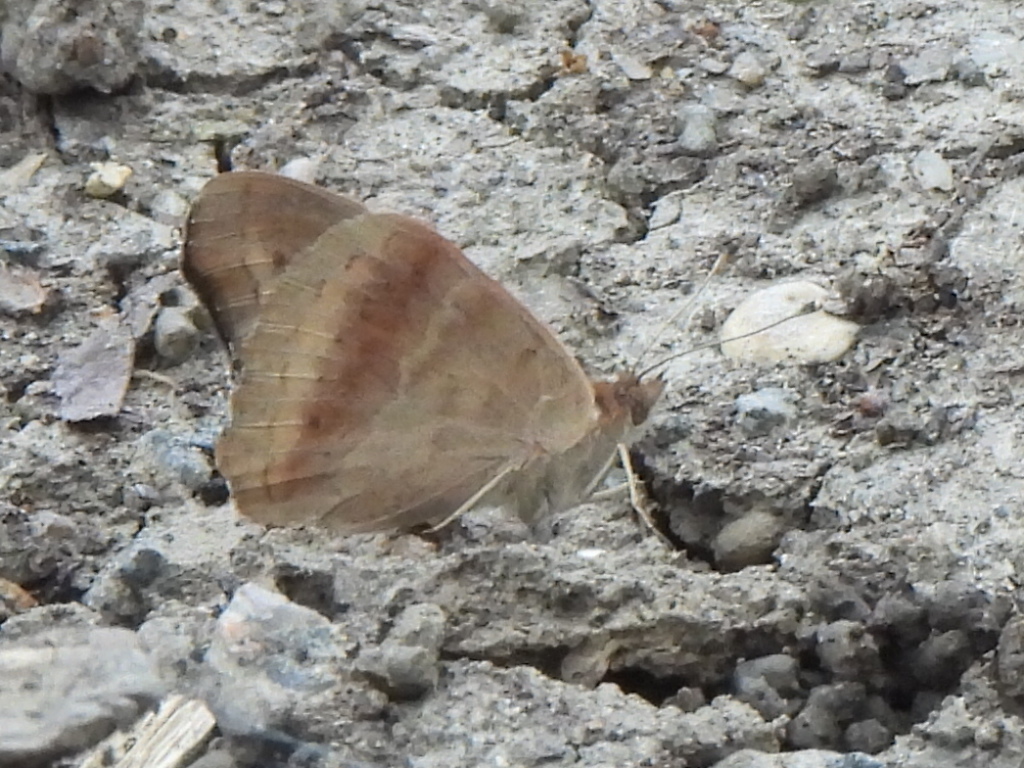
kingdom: Animalia
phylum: Arthropoda
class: Insecta
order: Lepidoptera
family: Nymphalidae
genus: Junonia
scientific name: Junonia coenia
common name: Common buckeye
